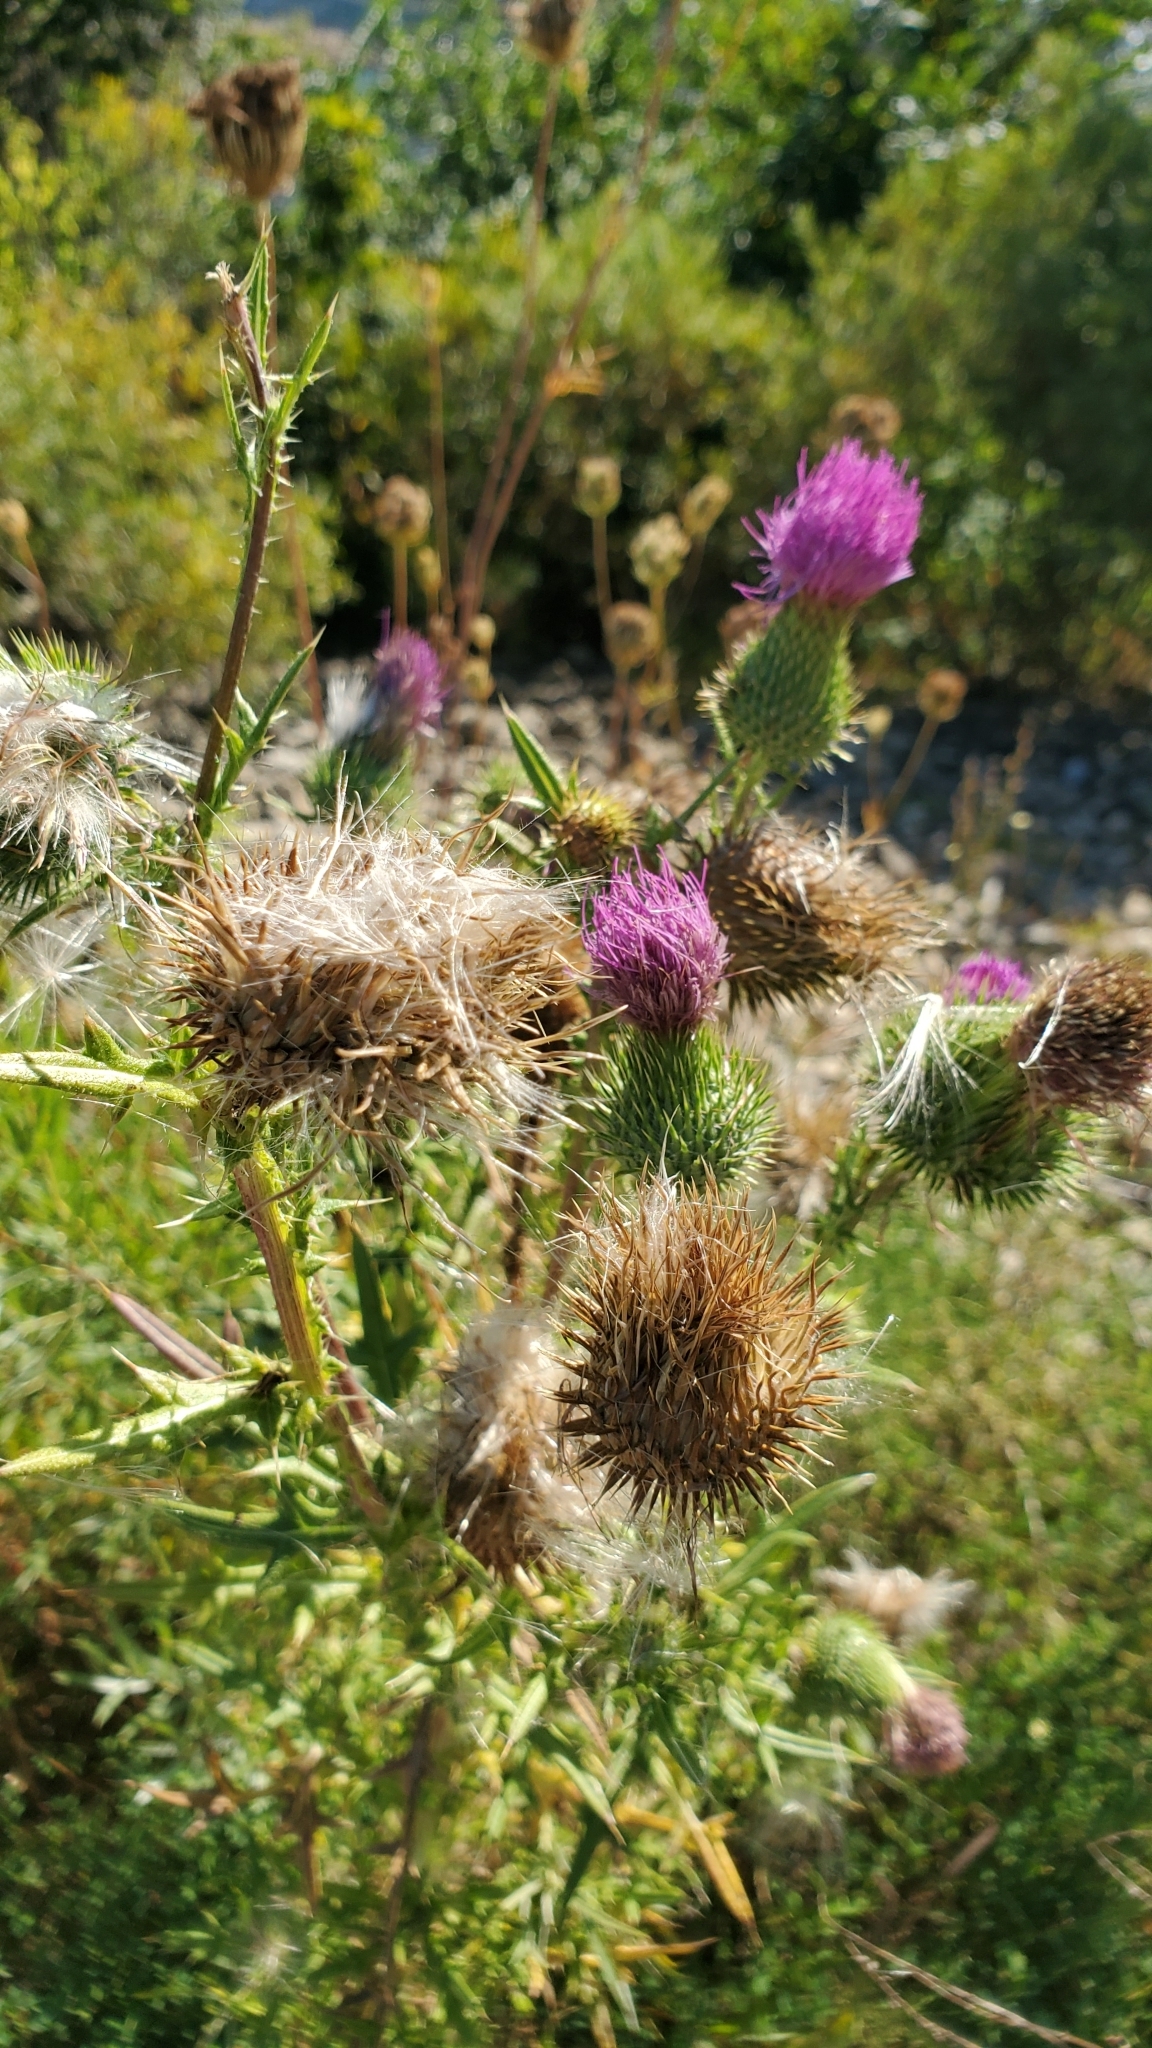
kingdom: Plantae
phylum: Tracheophyta
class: Magnoliopsida
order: Asterales
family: Asteraceae
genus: Cirsium
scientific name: Cirsium vulgare
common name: Bull thistle
